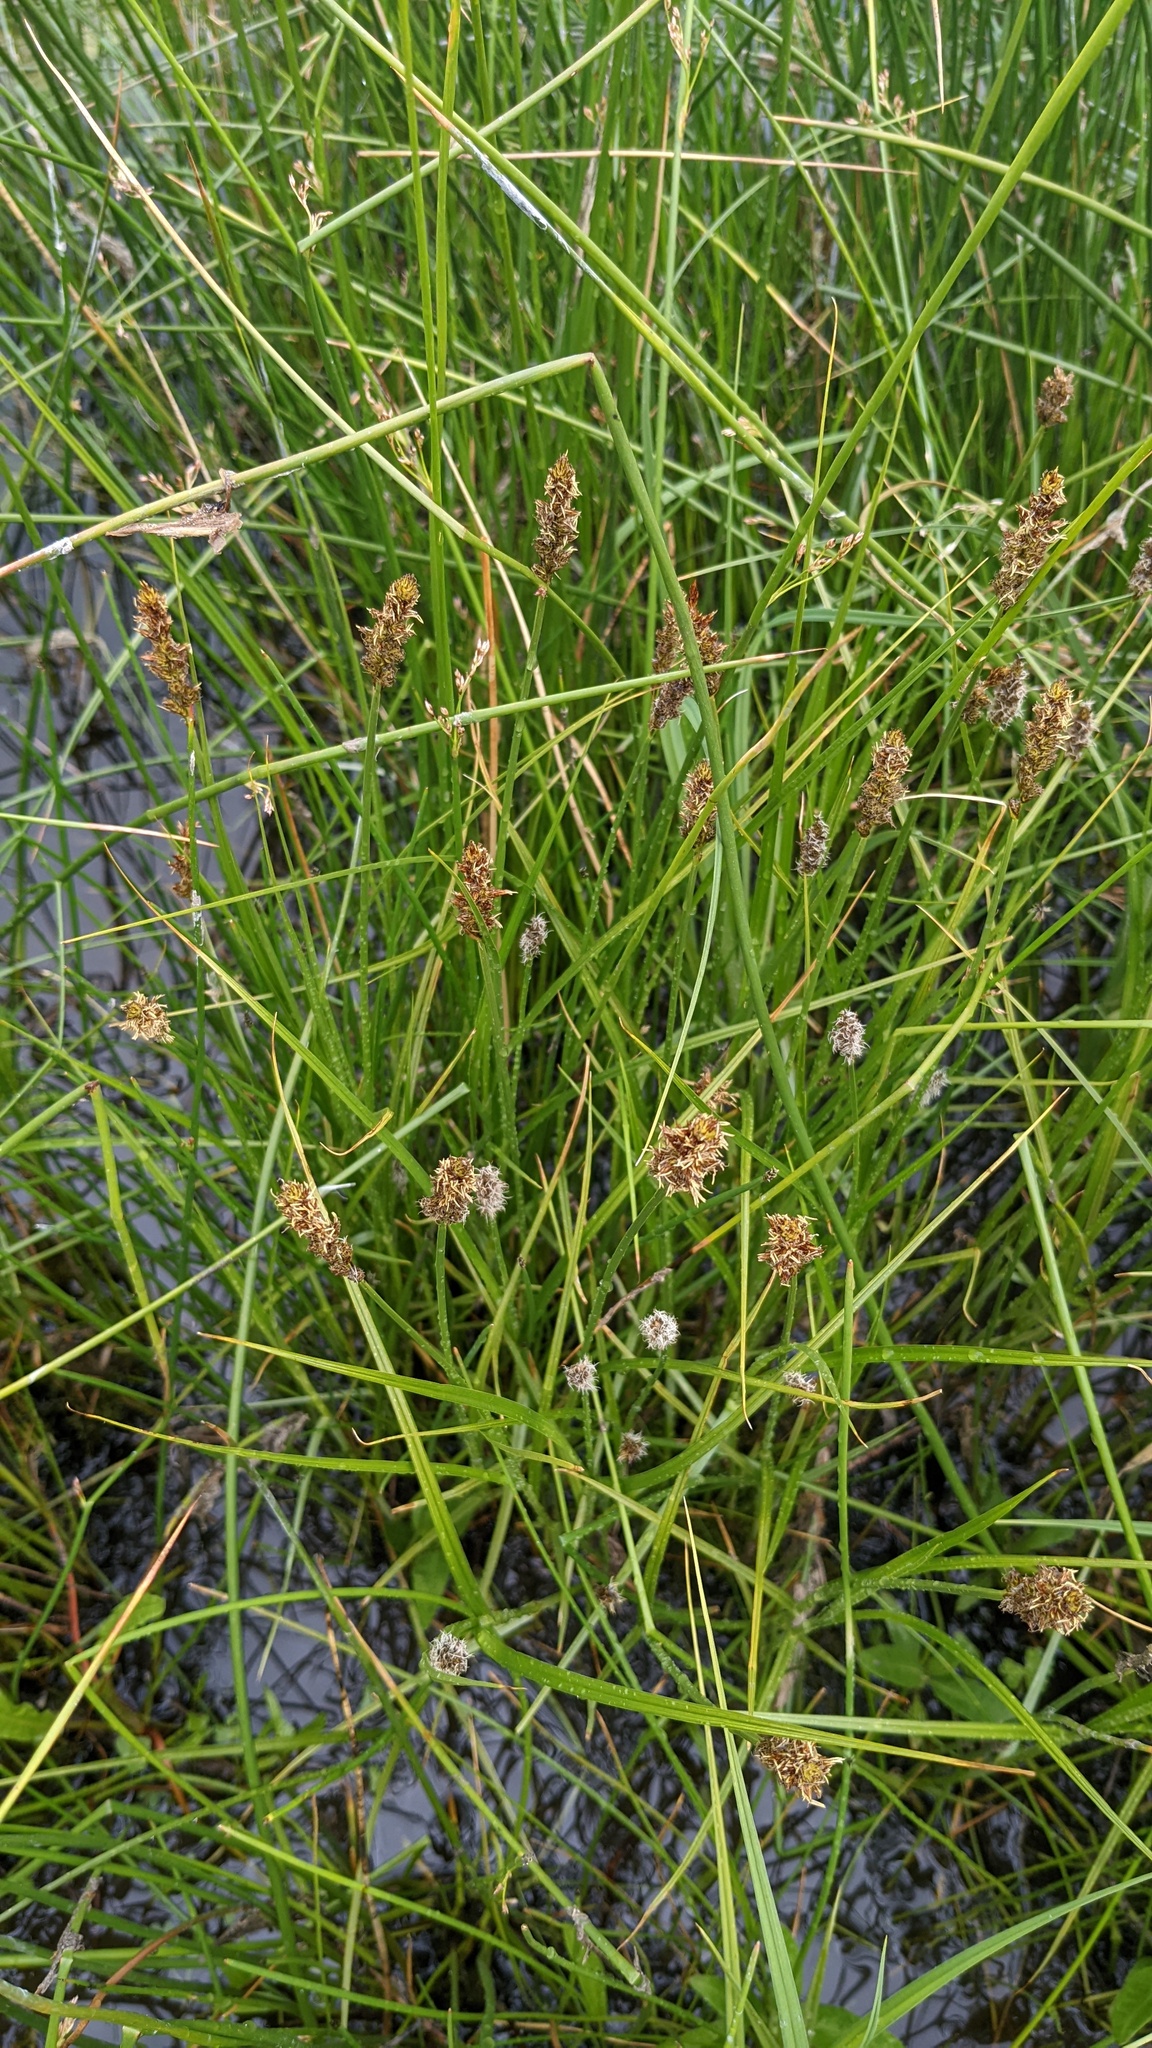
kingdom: Plantae
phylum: Tracheophyta
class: Liliopsida
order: Poales
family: Cyperaceae
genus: Carex
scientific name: Carex sartwellii
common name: Sartwell's sedge
